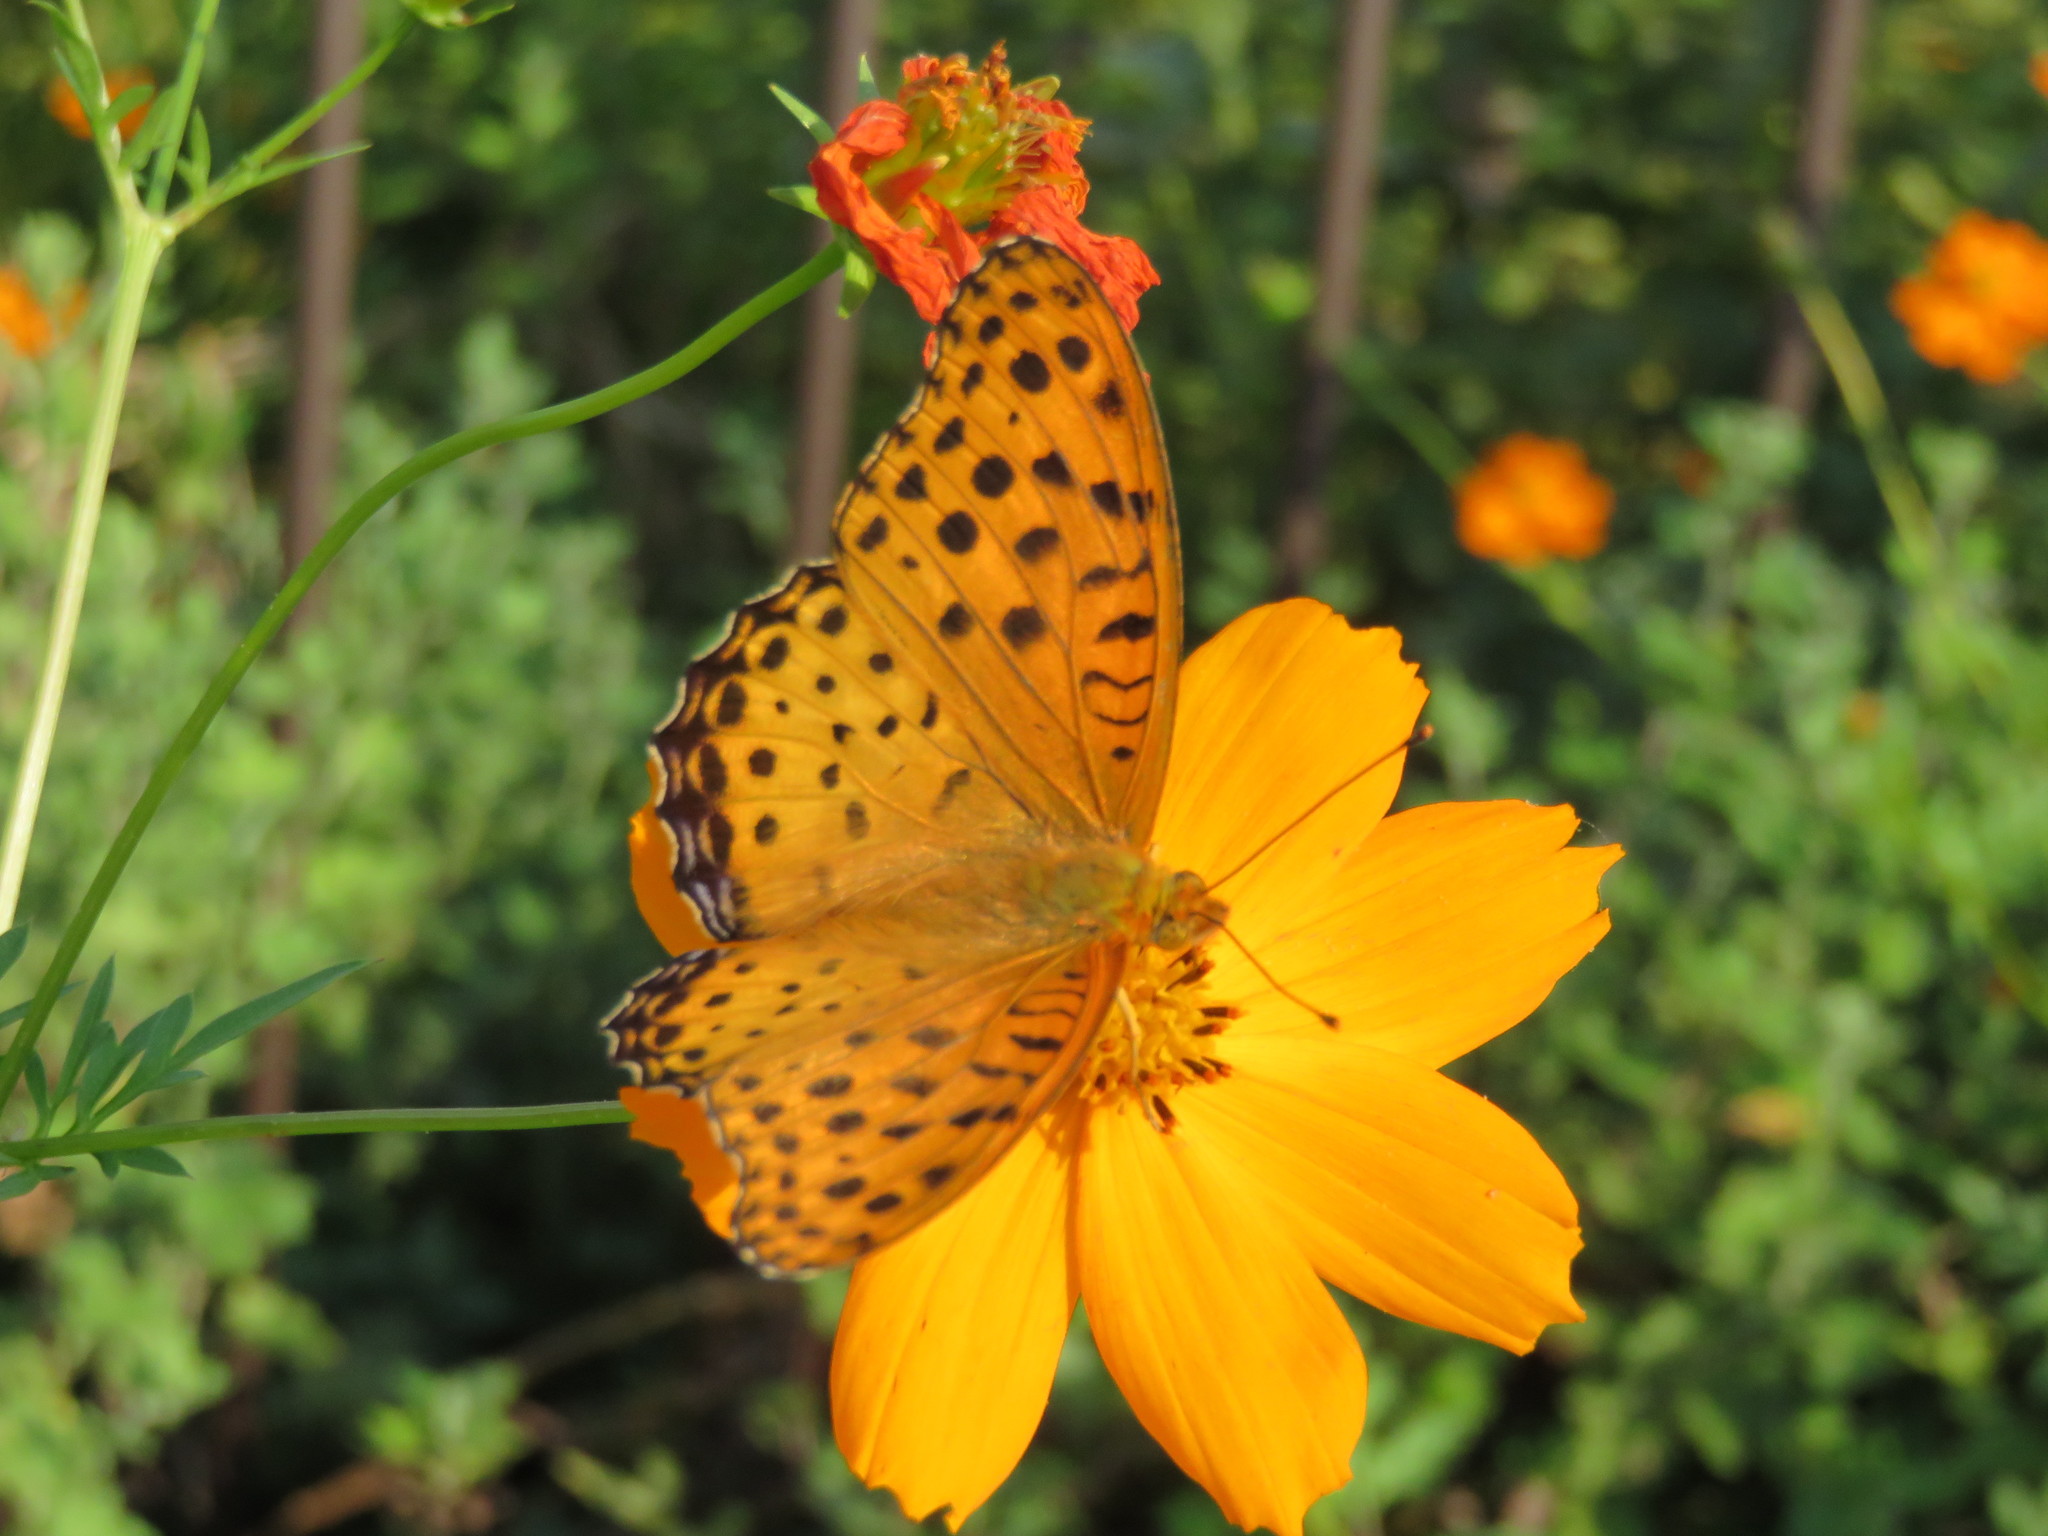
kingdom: Animalia
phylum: Arthropoda
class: Insecta
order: Lepidoptera
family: Nymphalidae
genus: Argynnis
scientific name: Argynnis hyperbius
